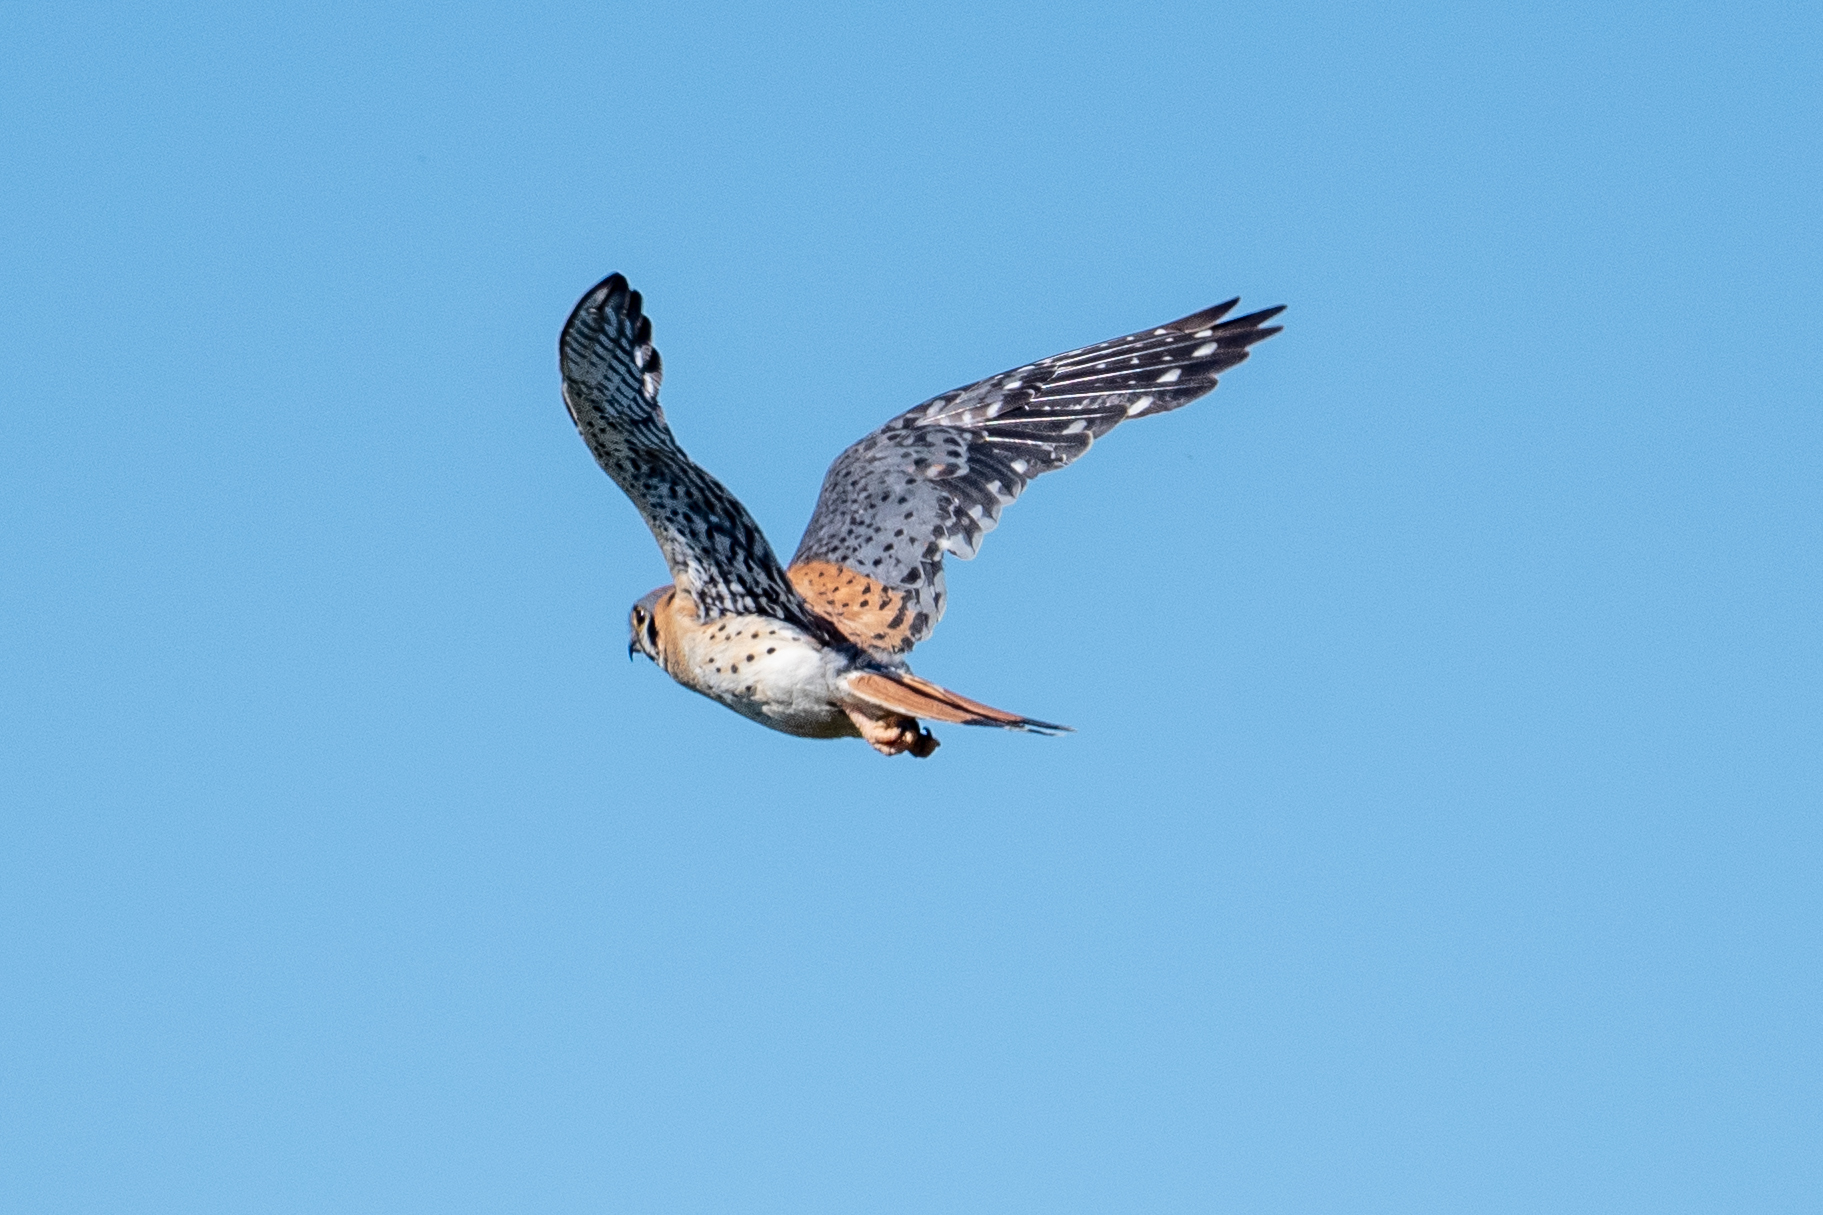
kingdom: Animalia
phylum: Chordata
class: Aves
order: Falconiformes
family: Falconidae
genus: Falco
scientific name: Falco sparverius
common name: American kestrel
